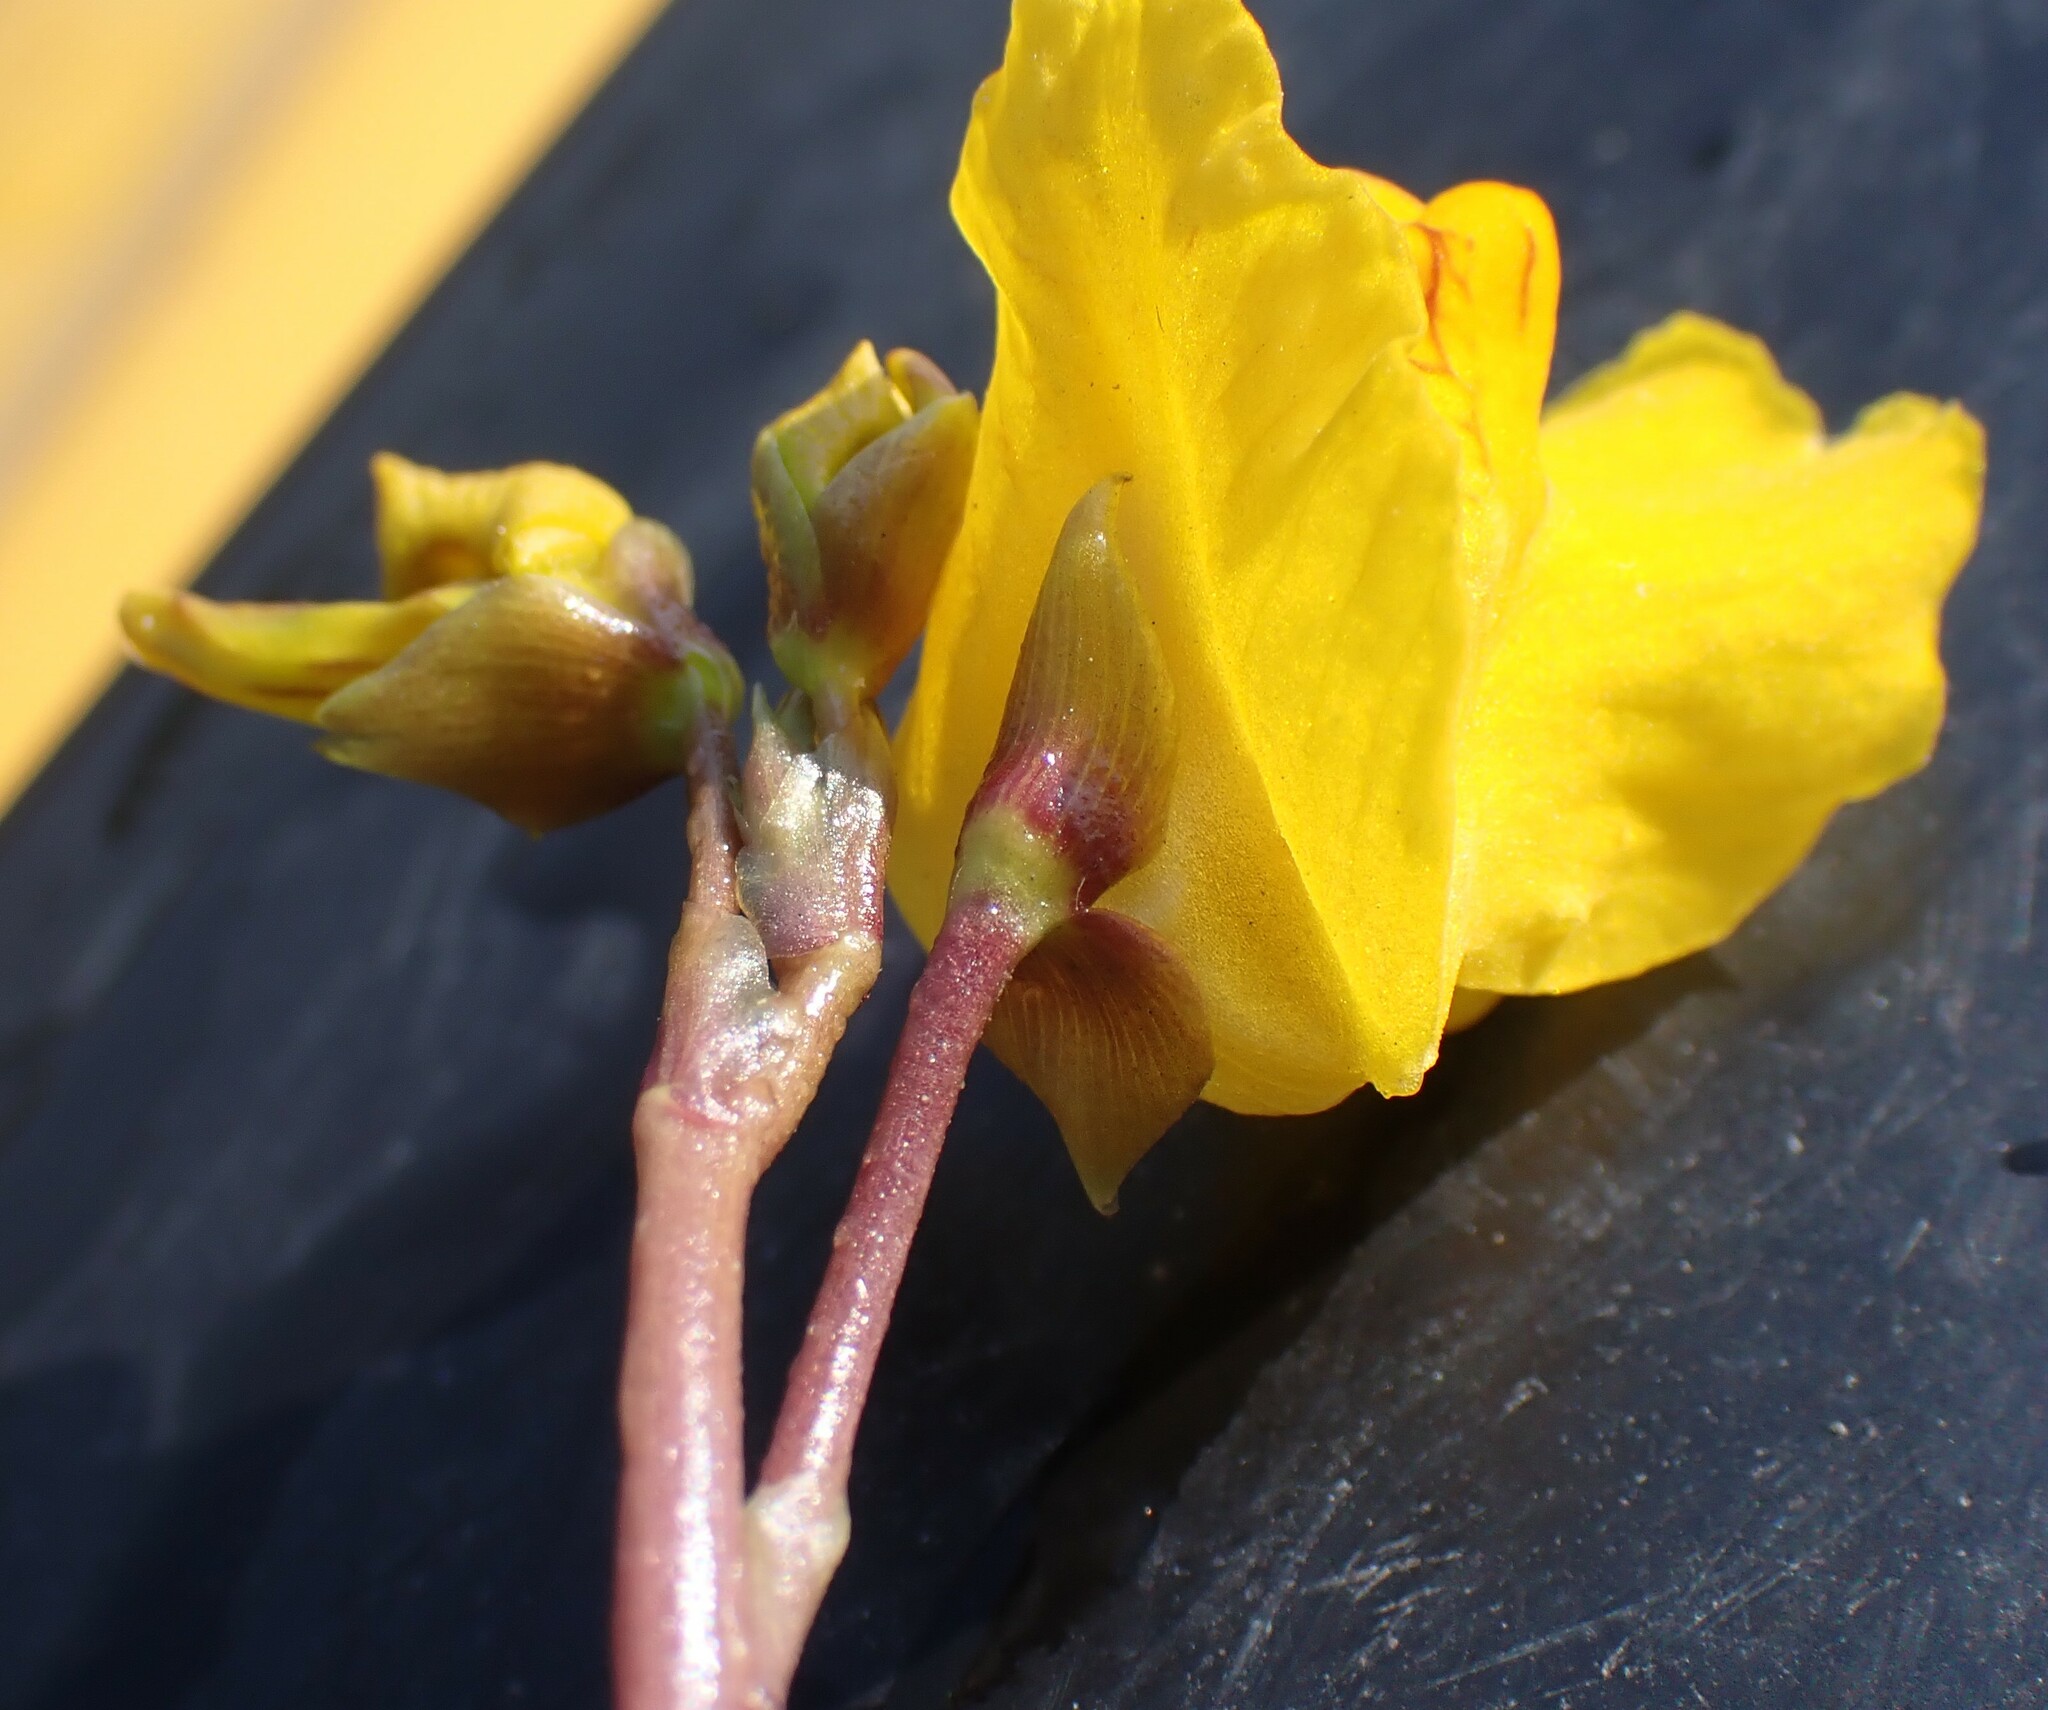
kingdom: Plantae
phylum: Tracheophyta
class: Magnoliopsida
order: Lamiales
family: Lentibulariaceae
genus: Utricularia
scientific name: Utricularia macrorhiza
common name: Common bladderwort
